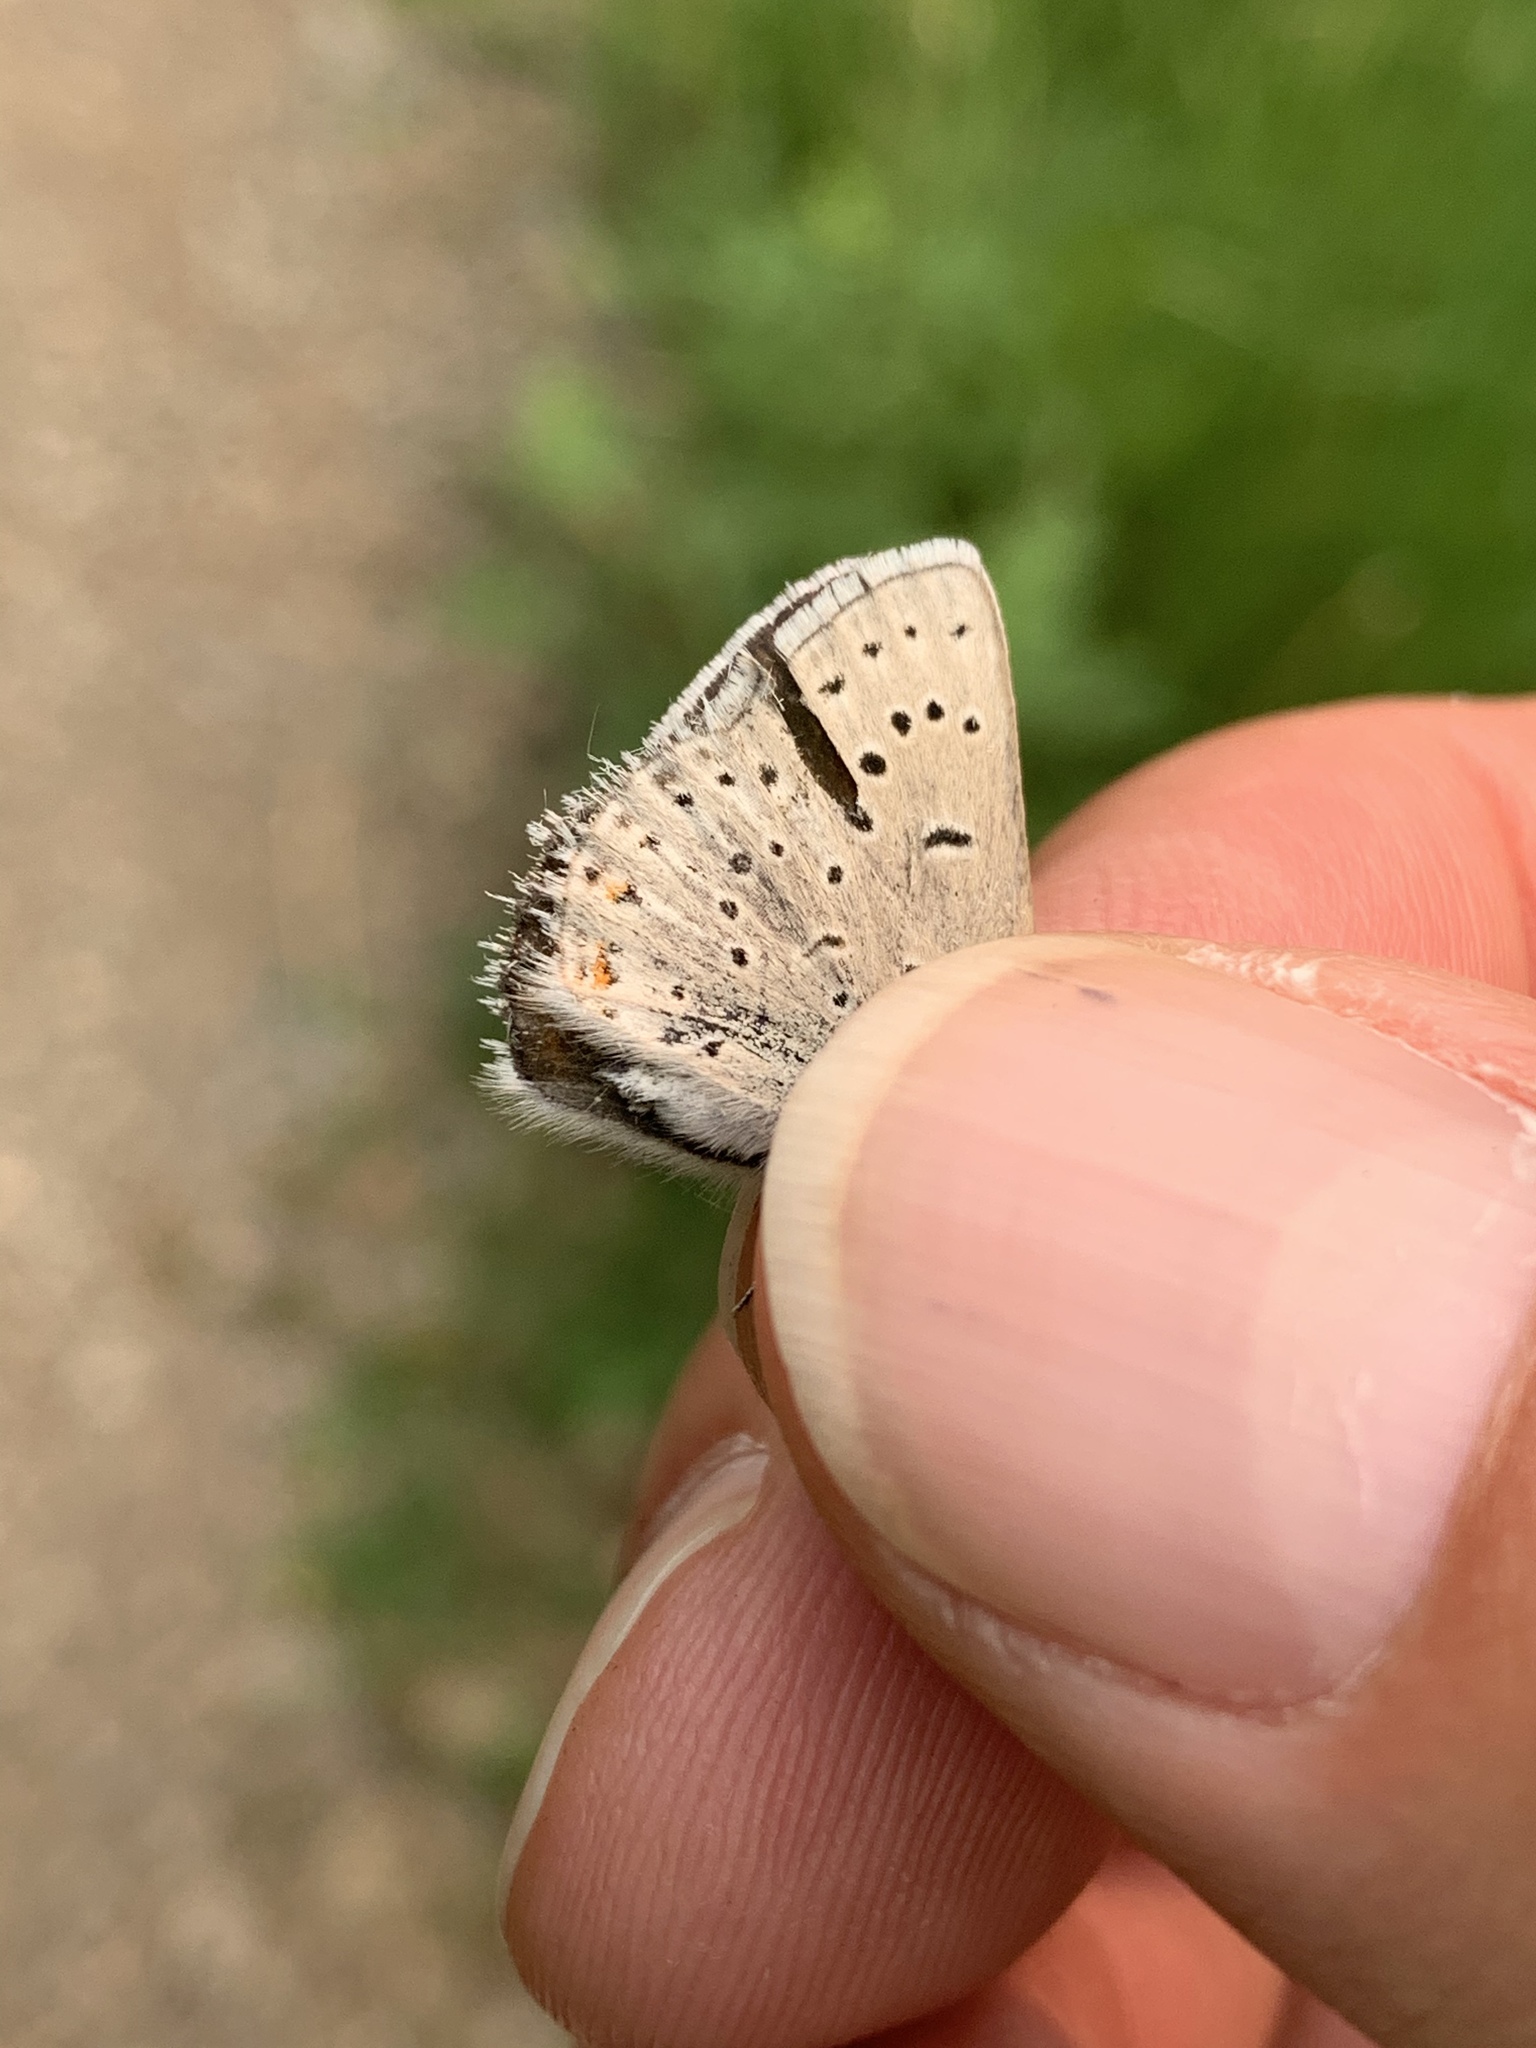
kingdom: Animalia
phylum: Arthropoda
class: Insecta
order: Lepidoptera
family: Lycaenidae
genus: Icaricia
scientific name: Icaricia saepiolus
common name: Greenish blue
